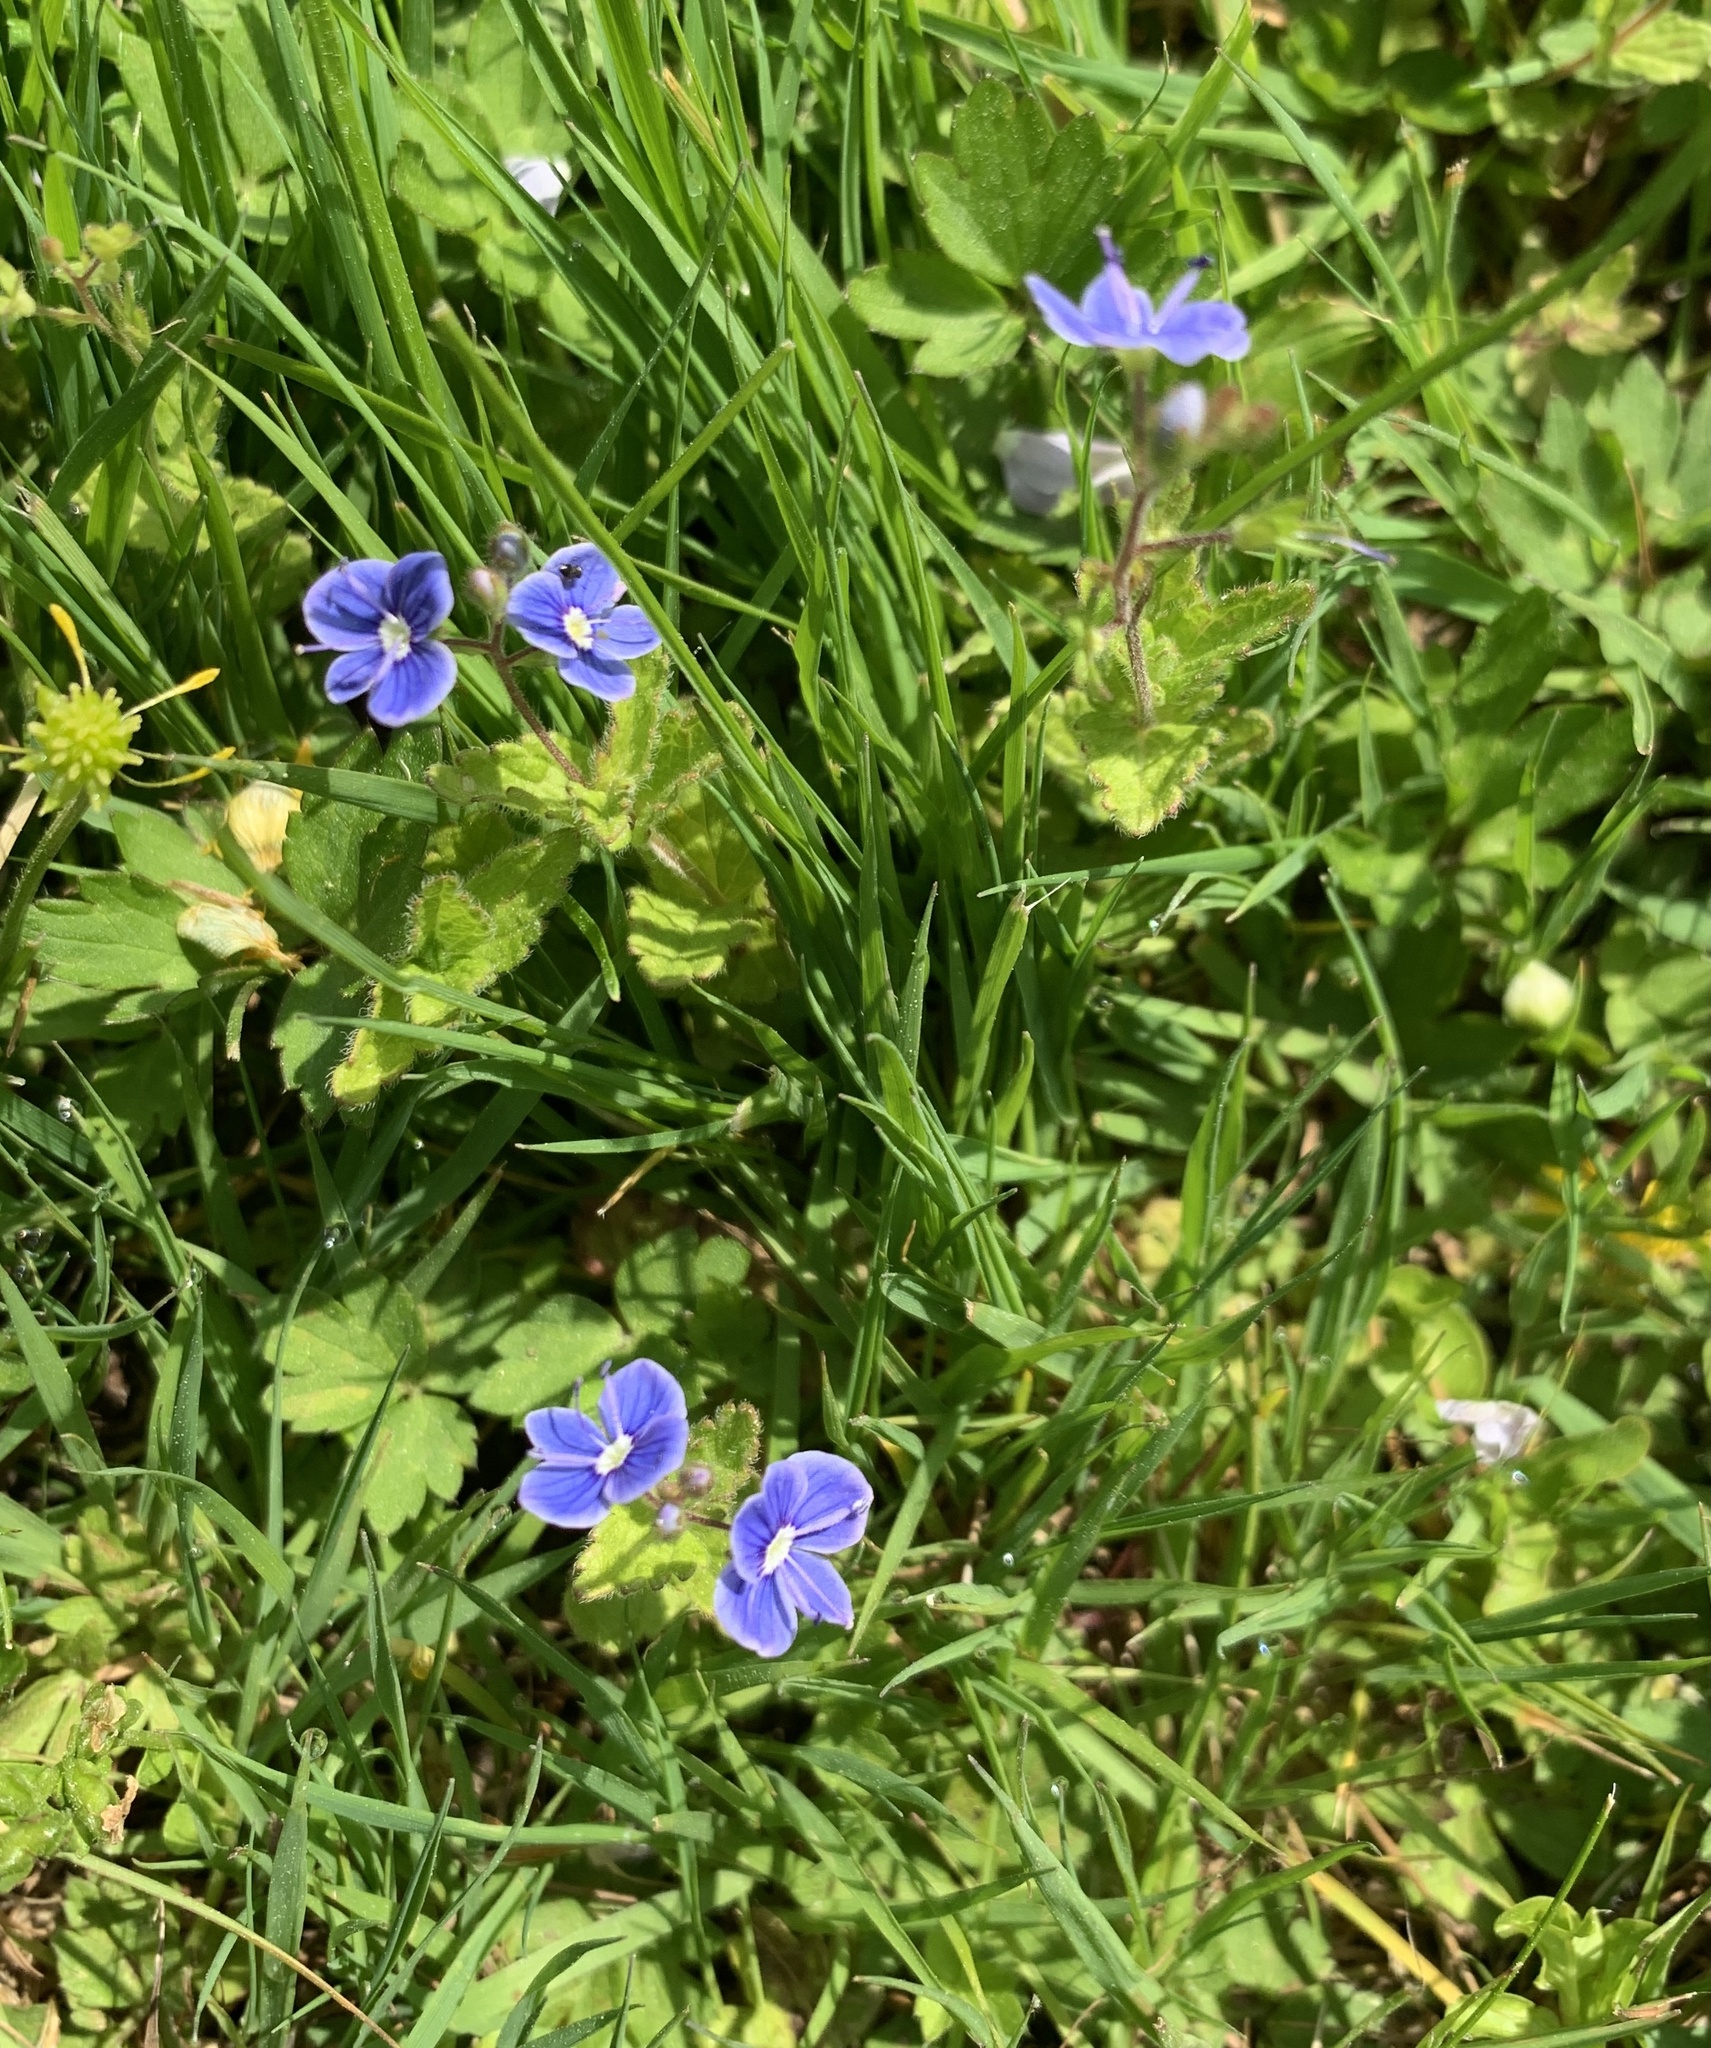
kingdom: Plantae
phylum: Tracheophyta
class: Magnoliopsida
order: Lamiales
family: Plantaginaceae
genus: Veronica
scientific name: Veronica chamaedrys
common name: Germander speedwell
